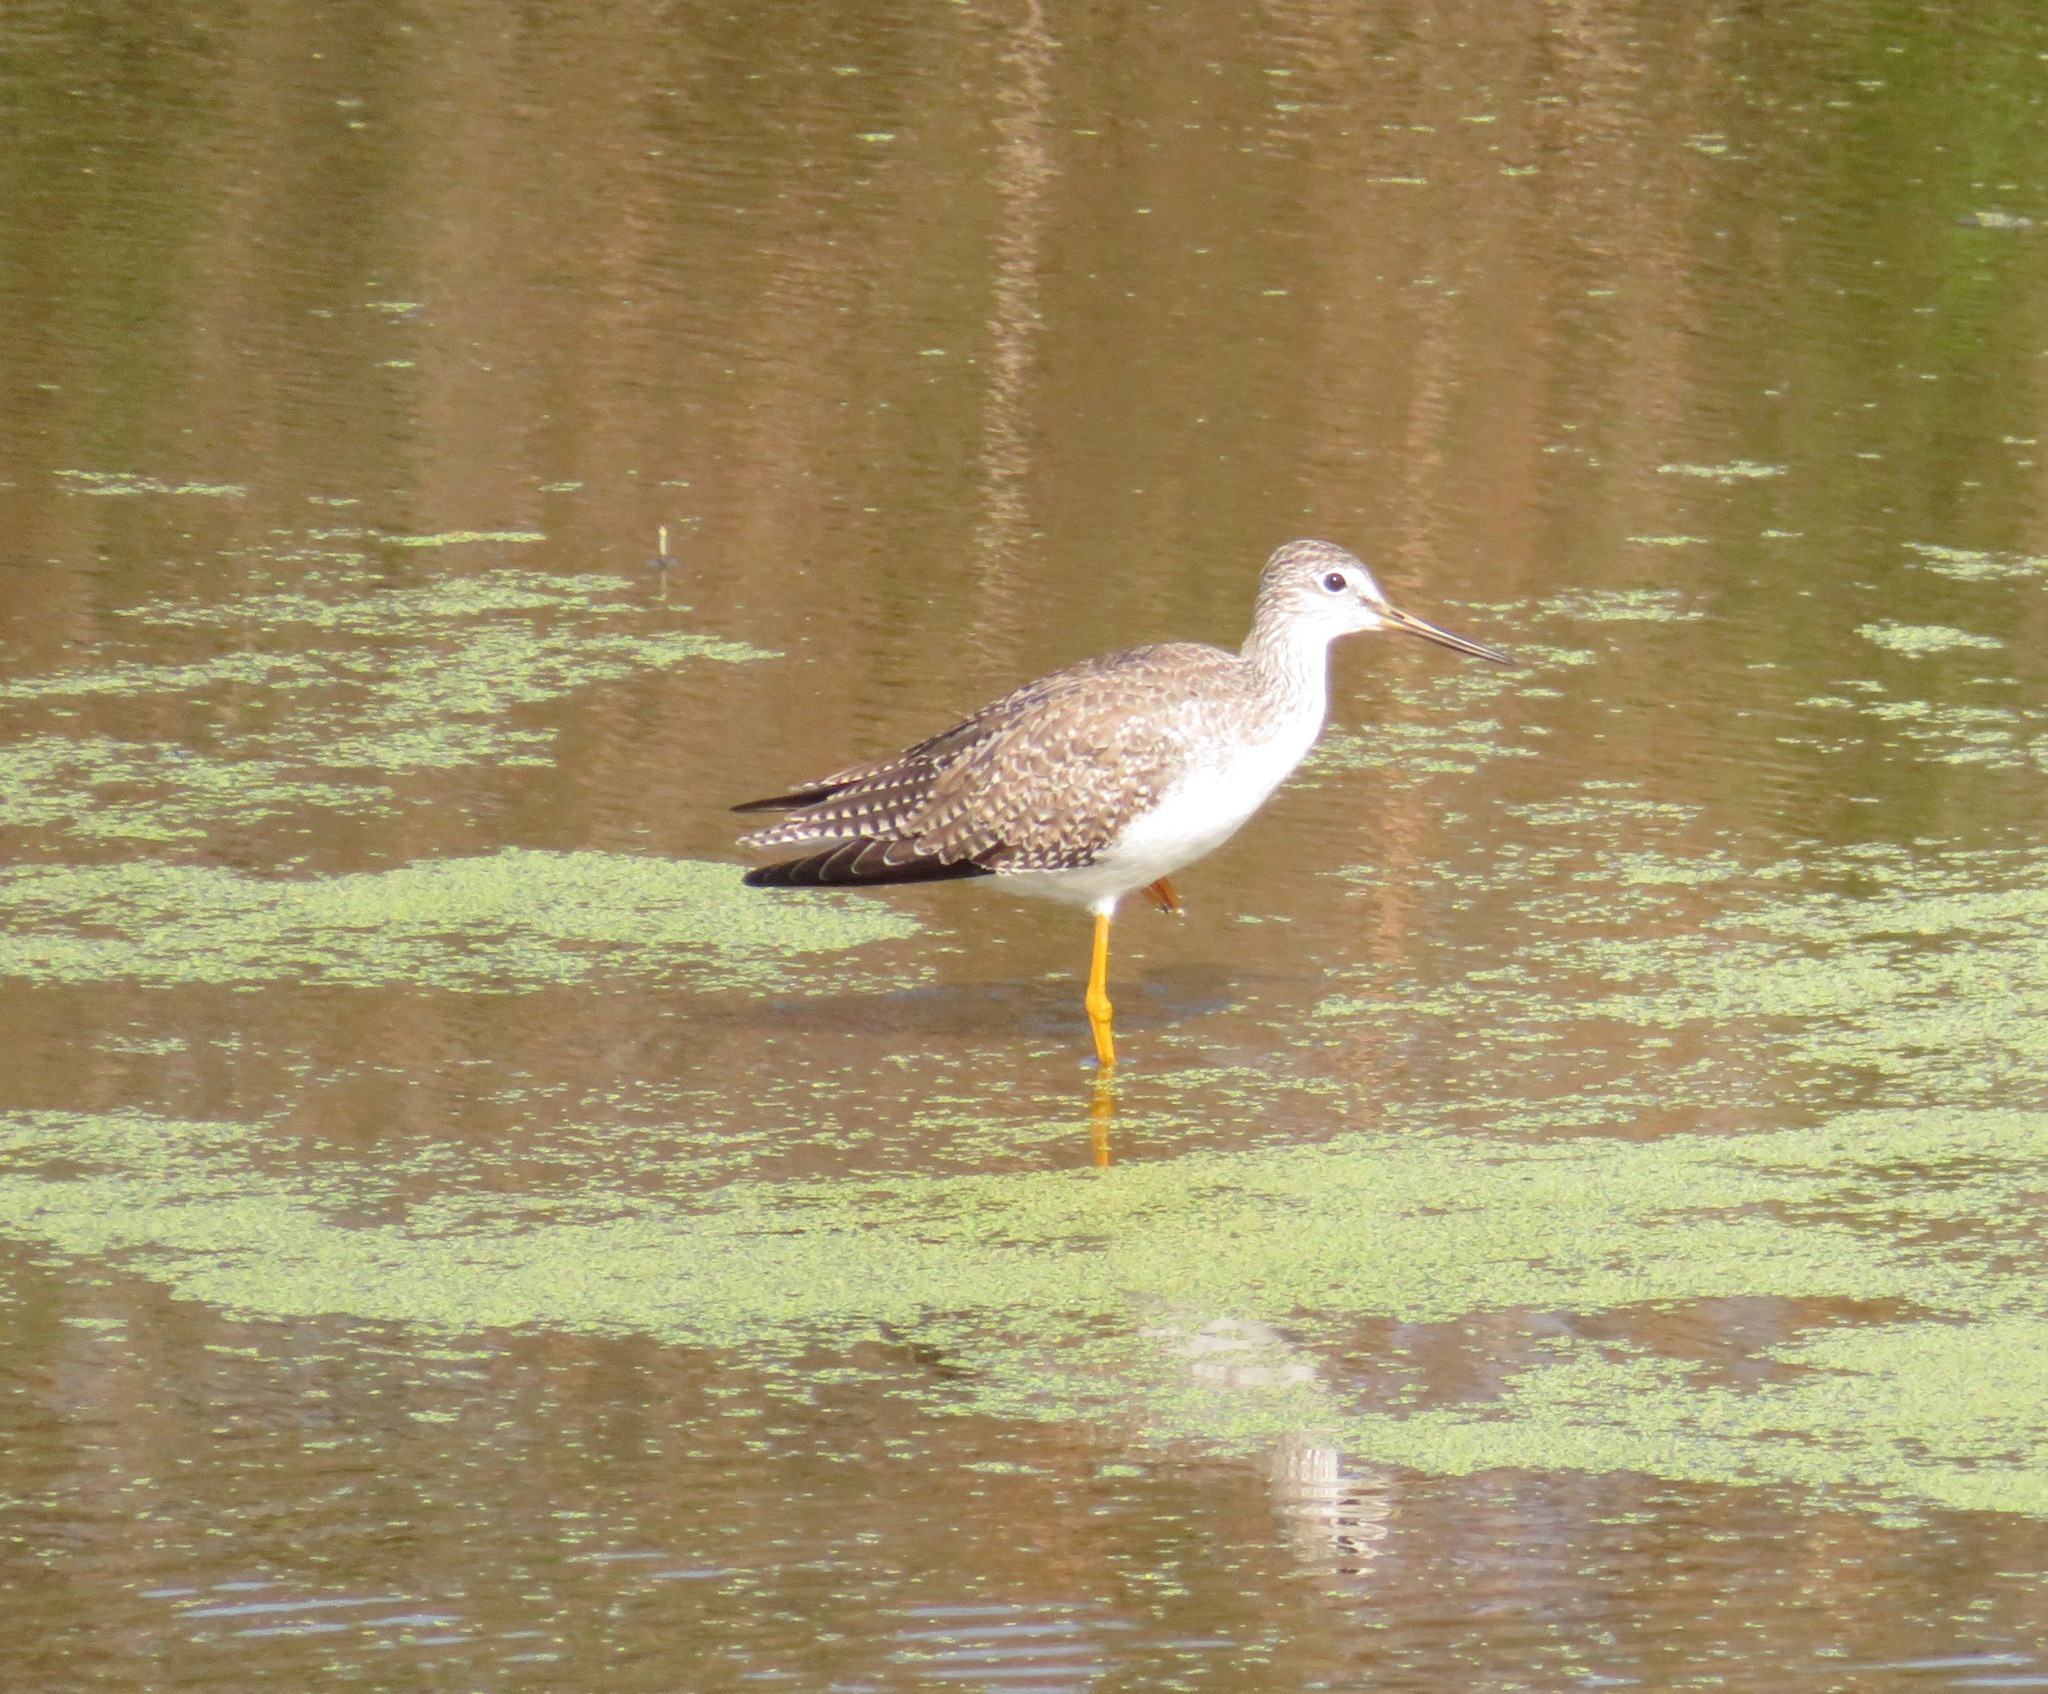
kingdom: Animalia
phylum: Chordata
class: Aves
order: Charadriiformes
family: Scolopacidae
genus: Tringa
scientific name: Tringa melanoleuca
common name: Greater yellowlegs
